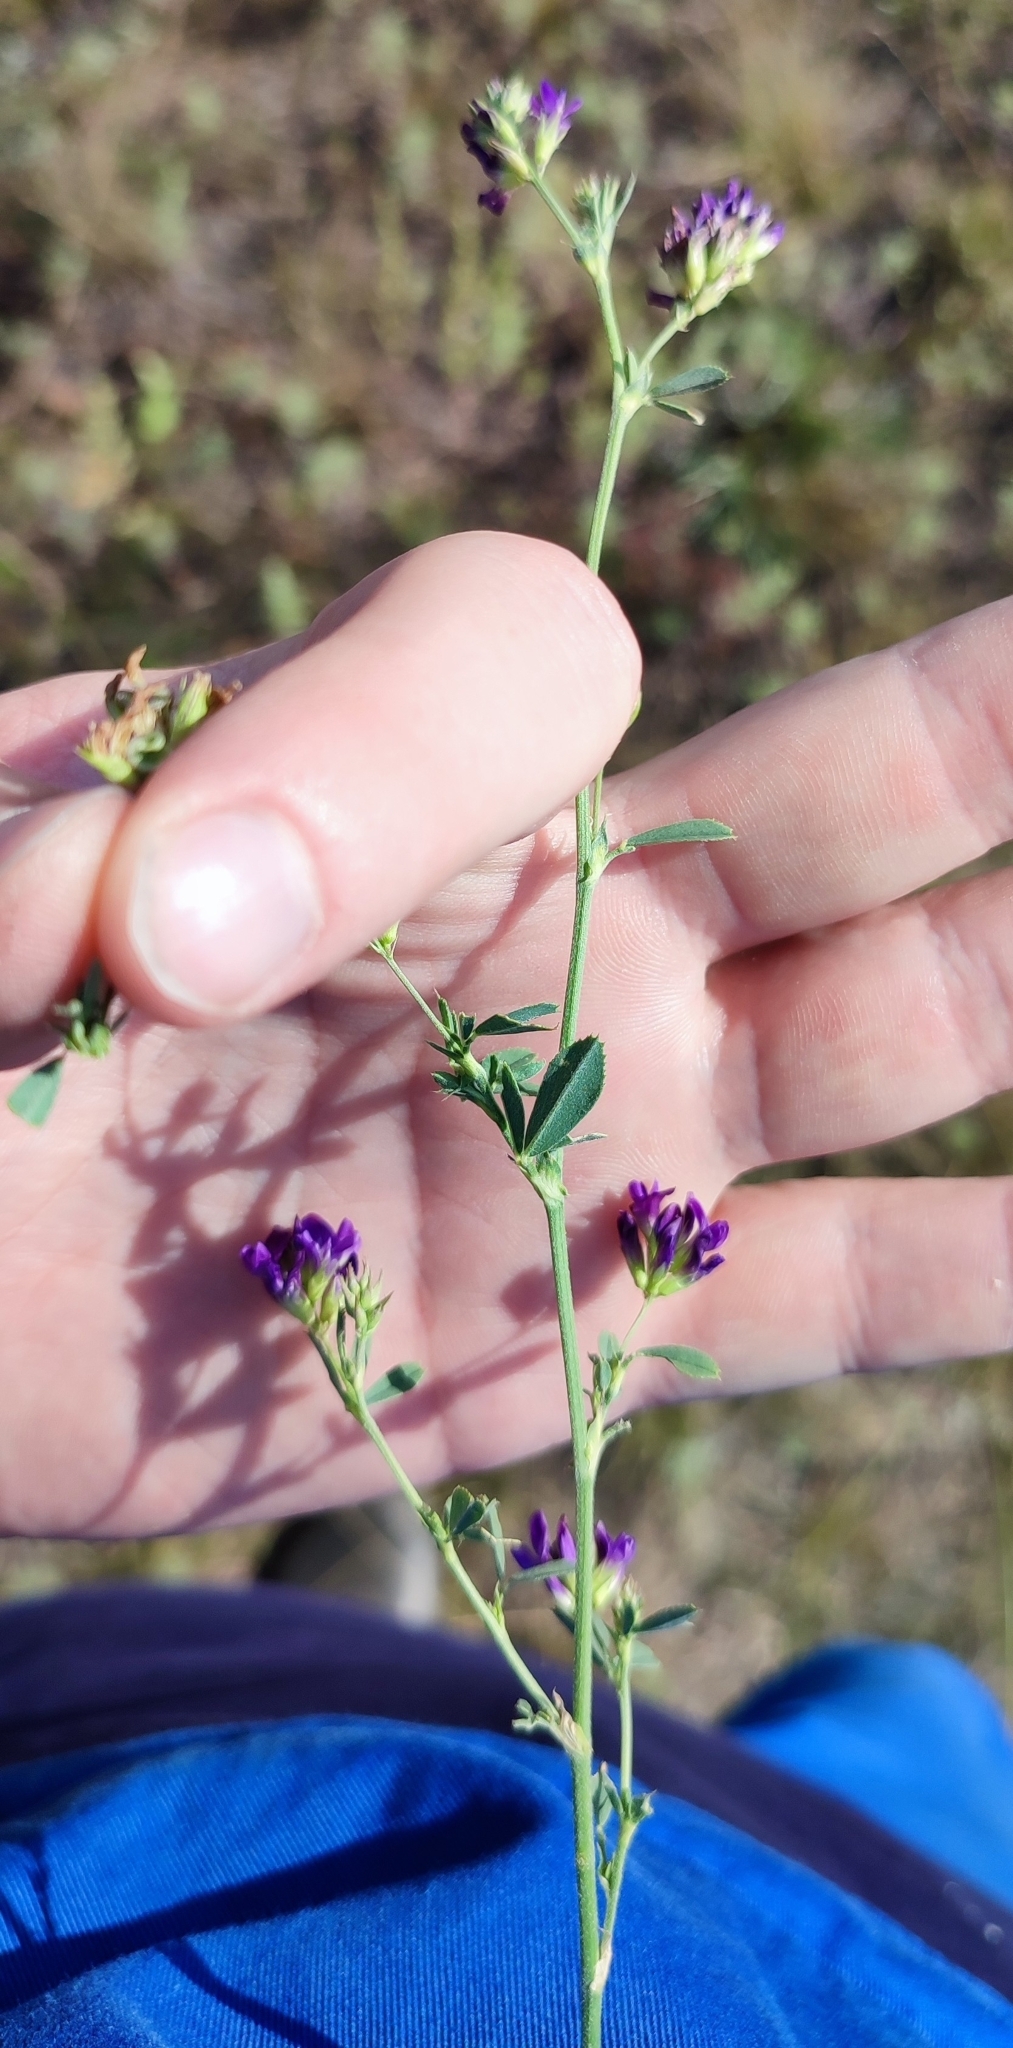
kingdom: Plantae
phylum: Tracheophyta
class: Magnoliopsida
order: Fabales
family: Fabaceae
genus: Medicago
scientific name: Medicago sativa
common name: Alfalfa
